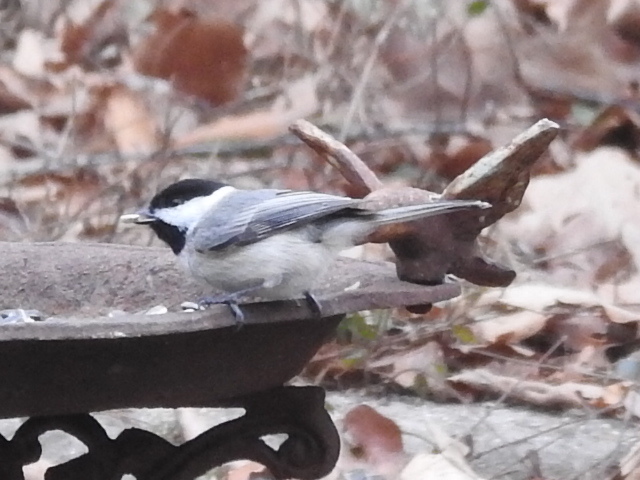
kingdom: Animalia
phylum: Chordata
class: Aves
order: Passeriformes
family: Paridae
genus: Poecile
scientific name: Poecile carolinensis
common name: Carolina chickadee
